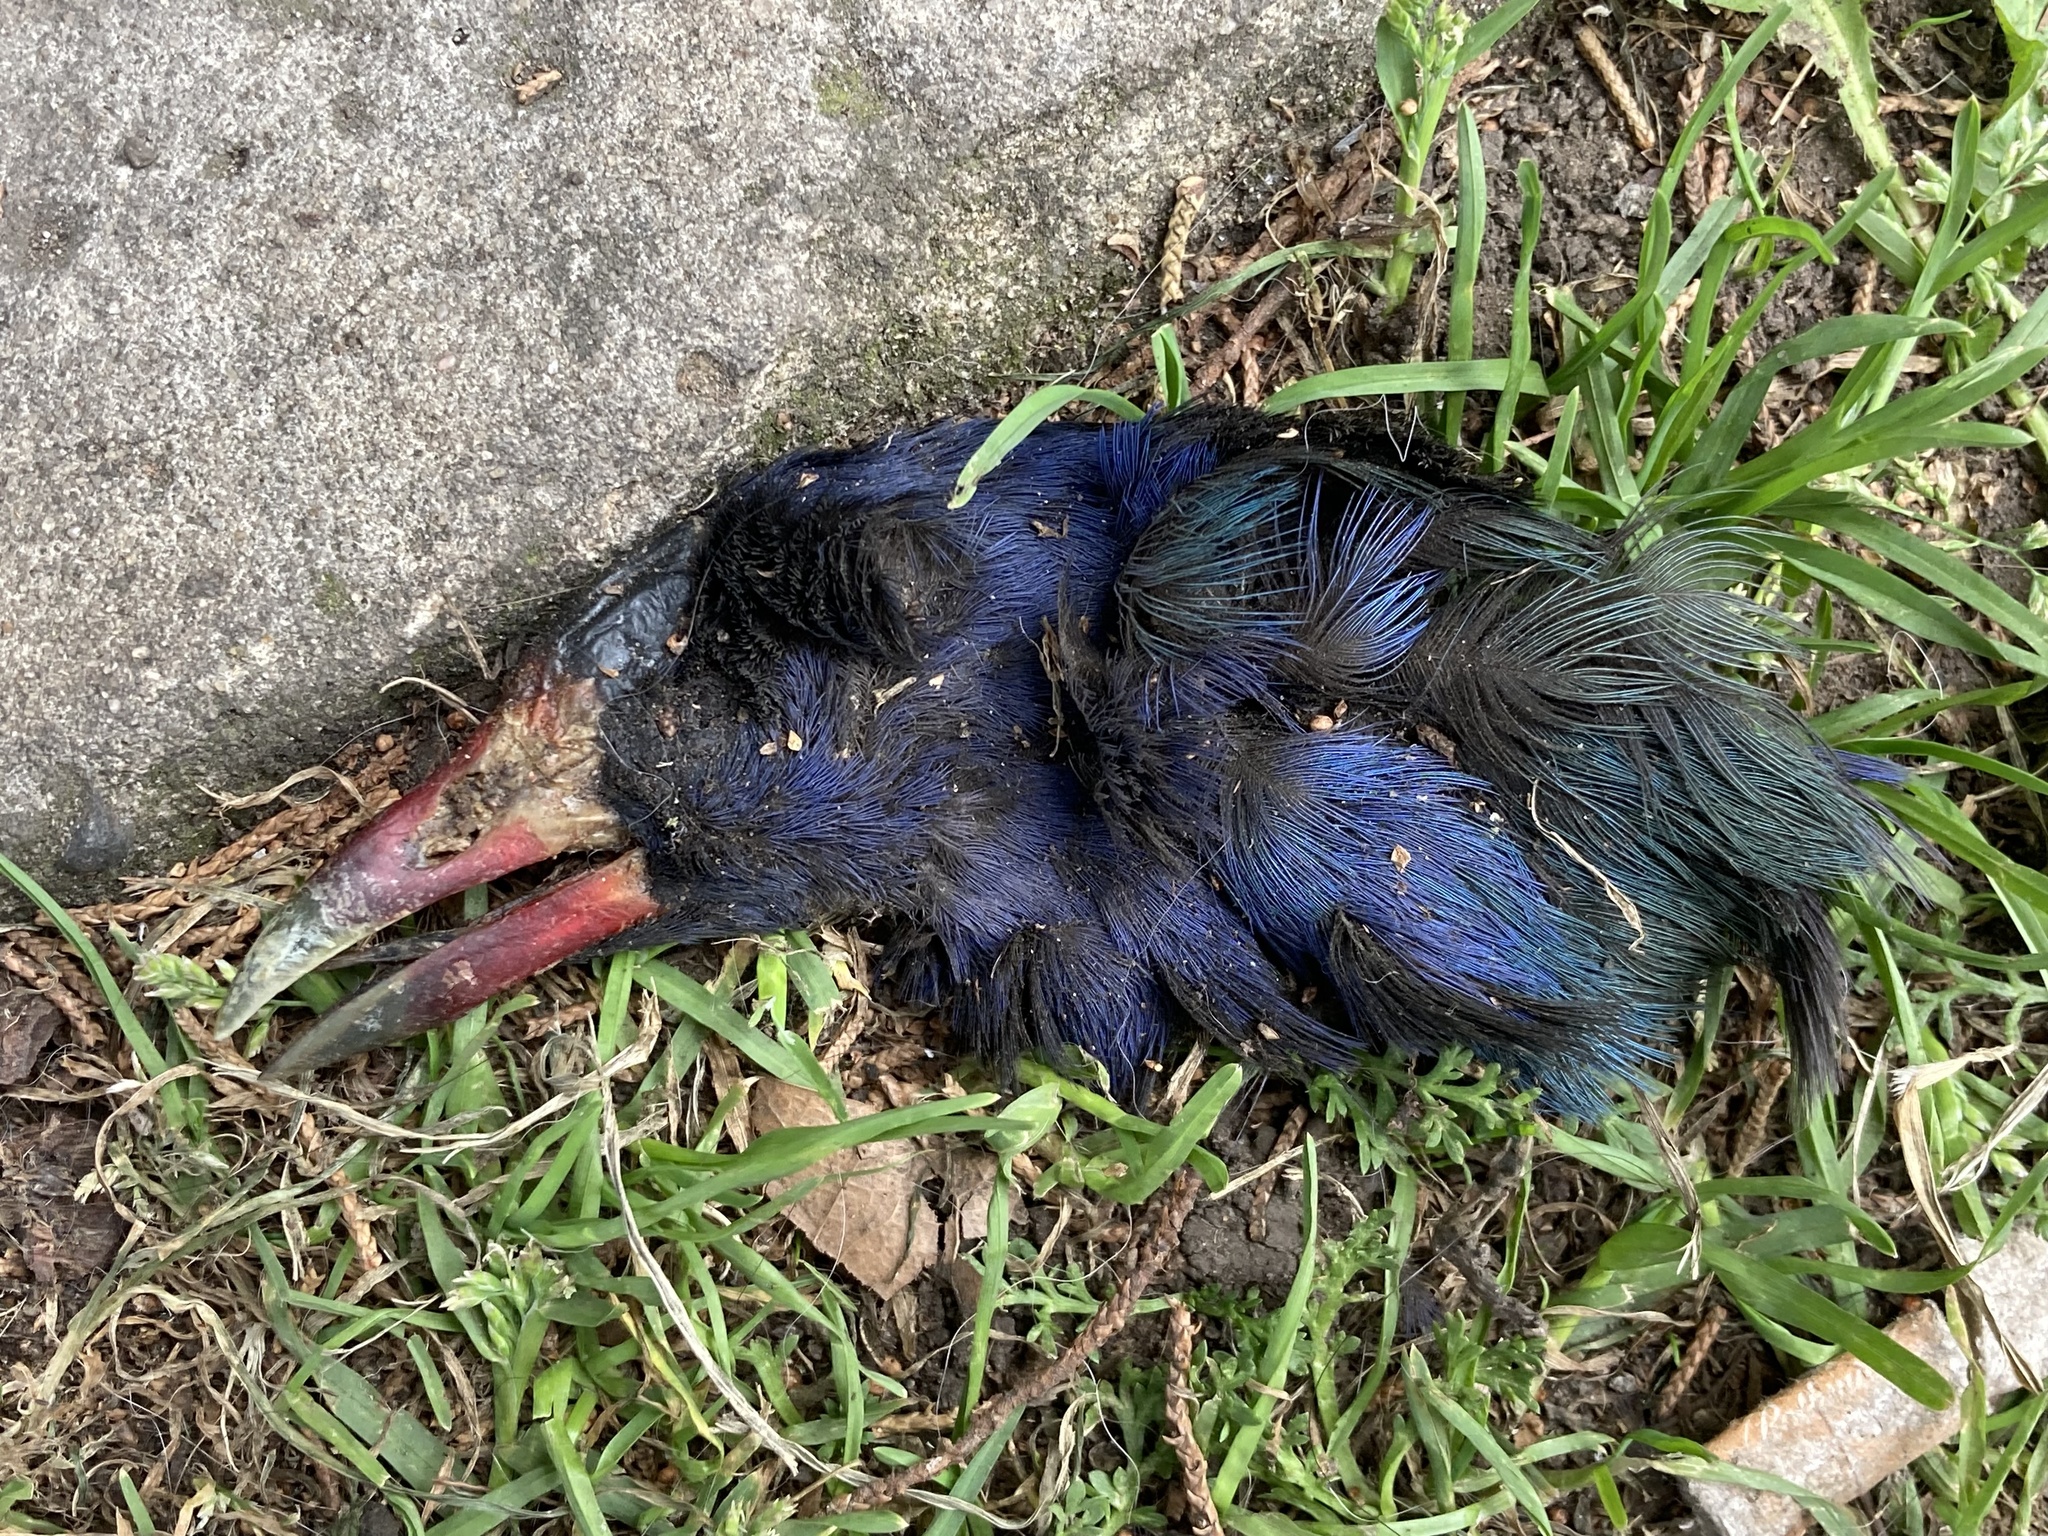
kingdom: Animalia
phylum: Chordata
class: Aves
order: Gruiformes
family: Rallidae
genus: Porphyrio
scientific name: Porphyrio martinica
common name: Purple gallinule
